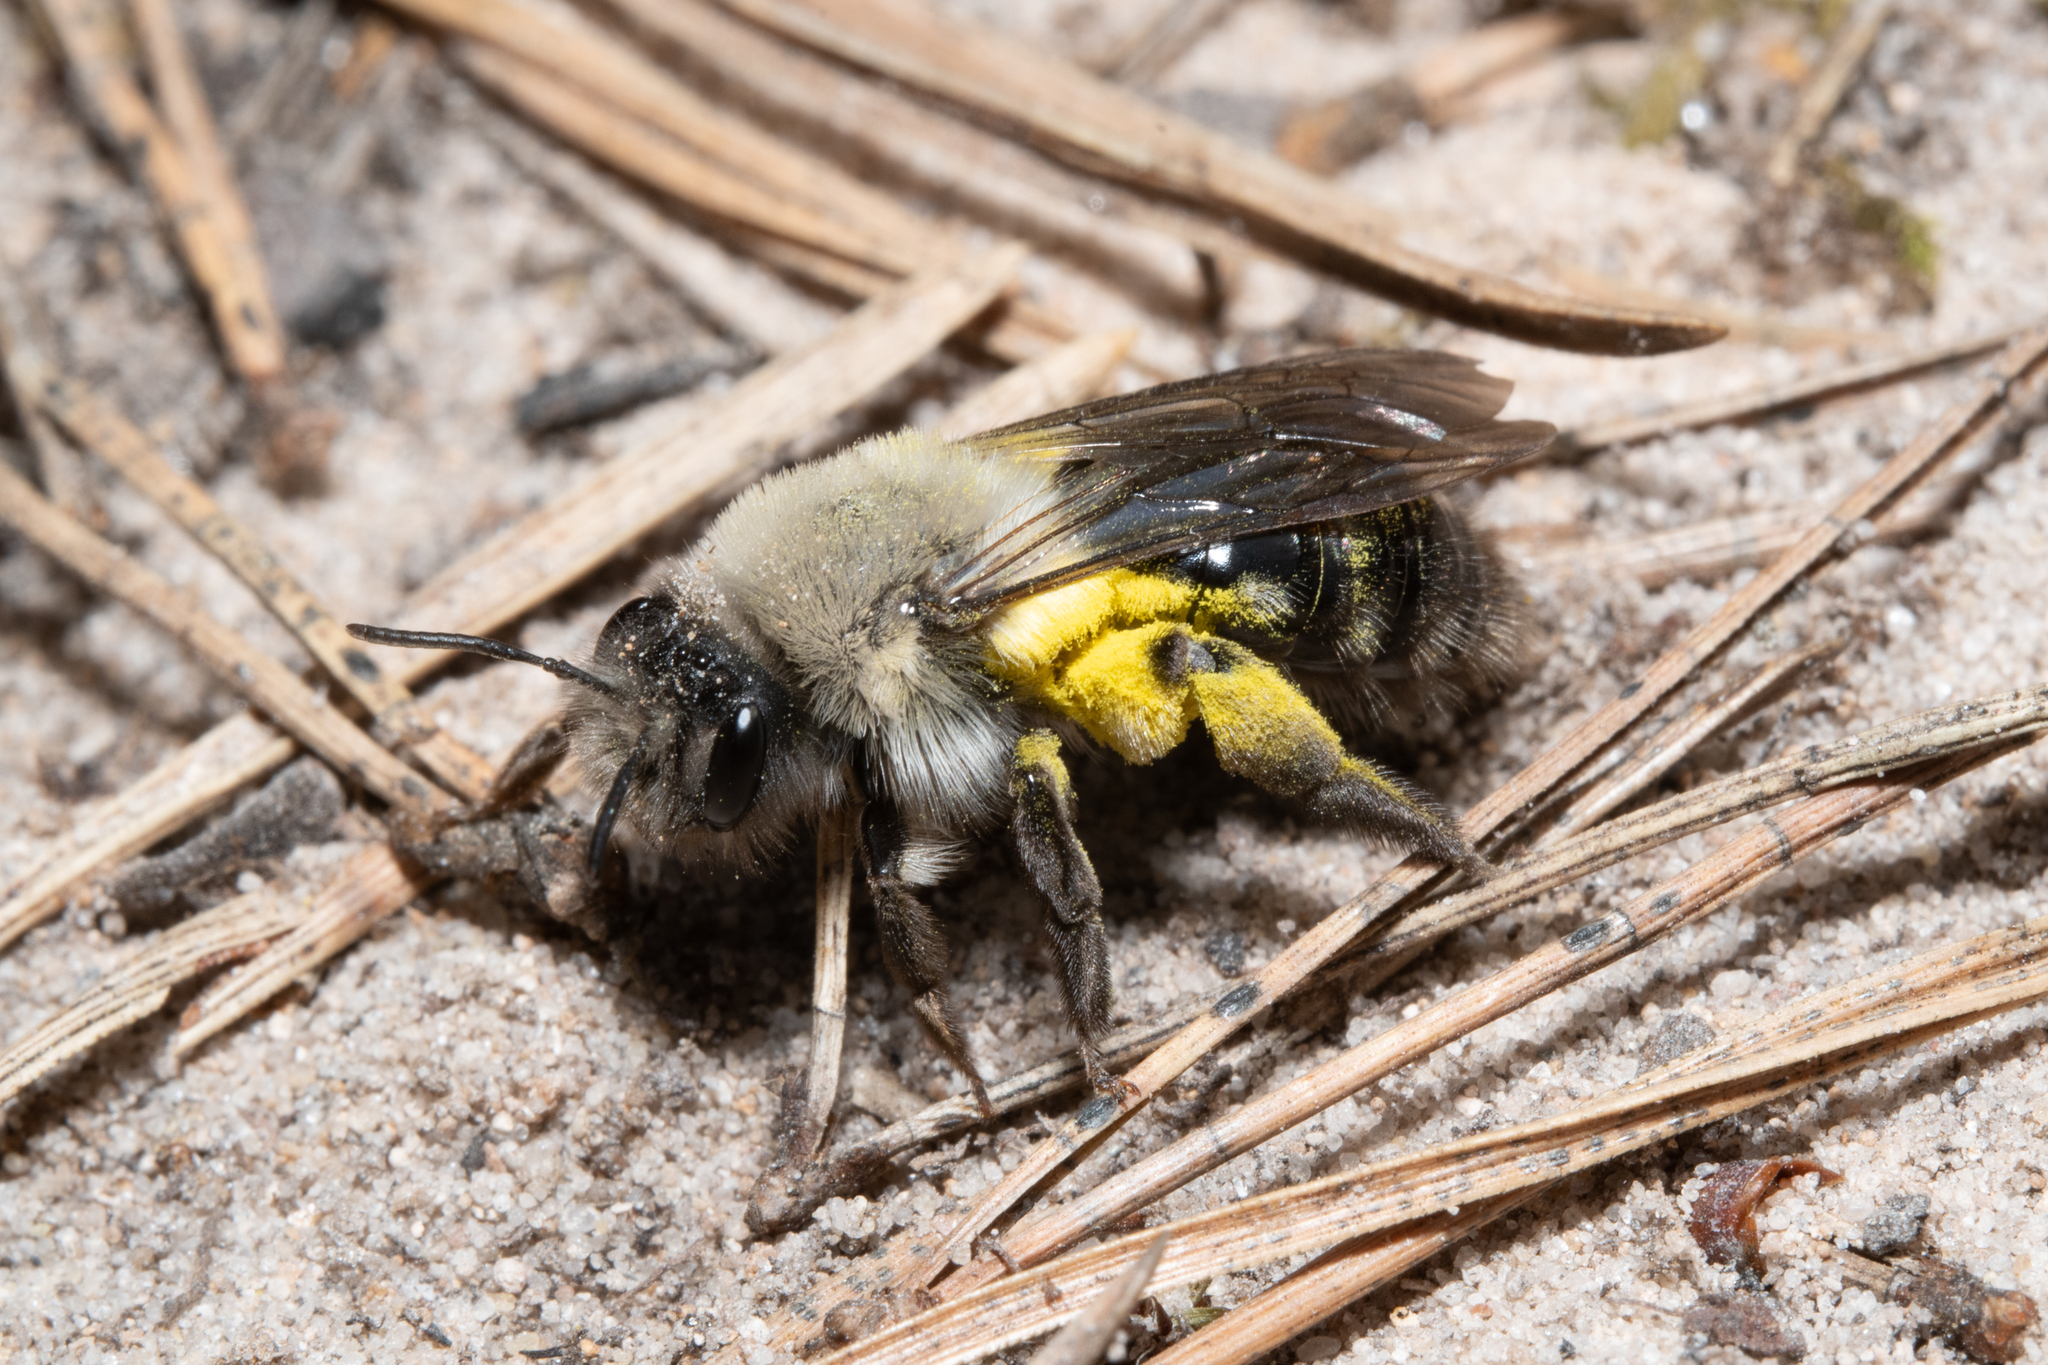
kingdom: Animalia
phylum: Arthropoda
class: Insecta
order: Hymenoptera
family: Andrenidae
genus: Andrena
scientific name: Andrena vaga
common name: Grey-backed mining bee
